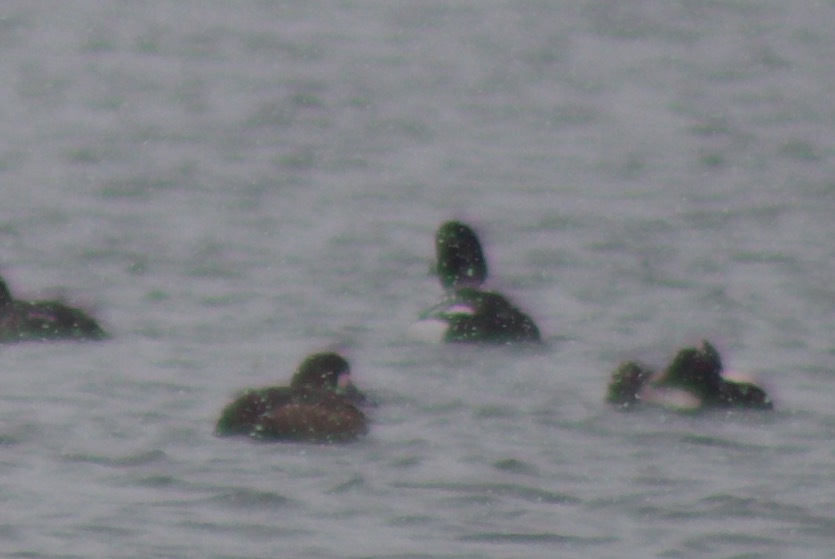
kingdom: Animalia
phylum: Chordata
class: Aves
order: Anseriformes
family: Anatidae
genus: Bucephala
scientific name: Bucephala clangula
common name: Common goldeneye
